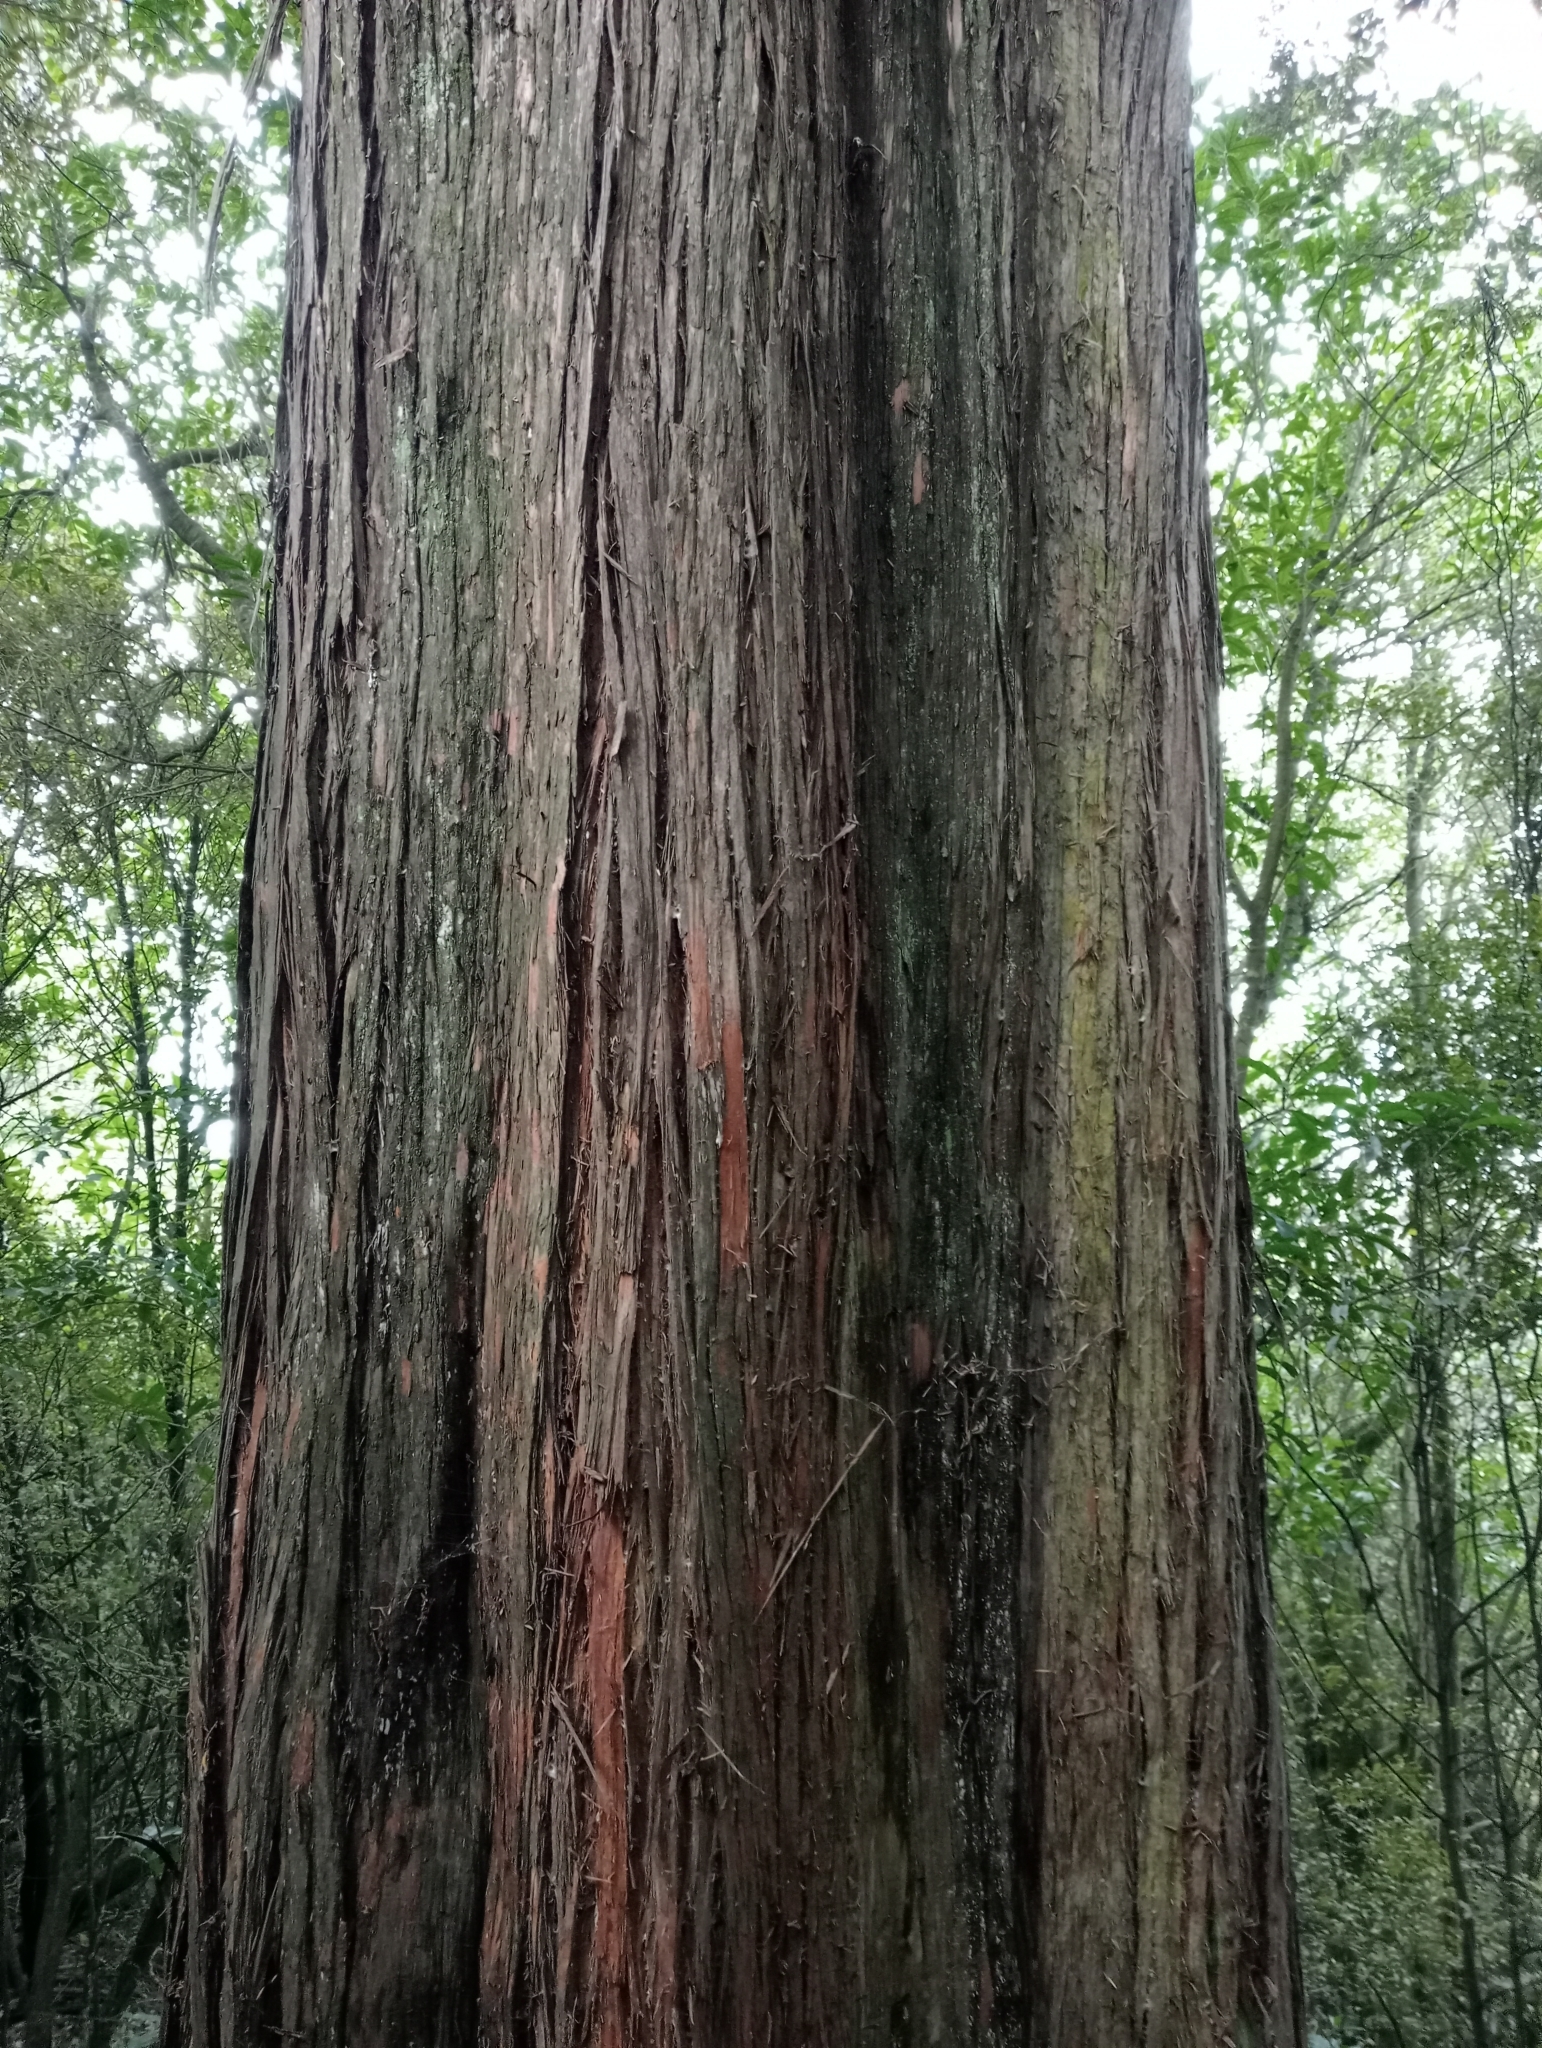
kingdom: Plantae
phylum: Tracheophyta
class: Pinopsida
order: Pinales
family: Podocarpaceae
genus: Podocarpus
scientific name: Podocarpus totara
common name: Totara
